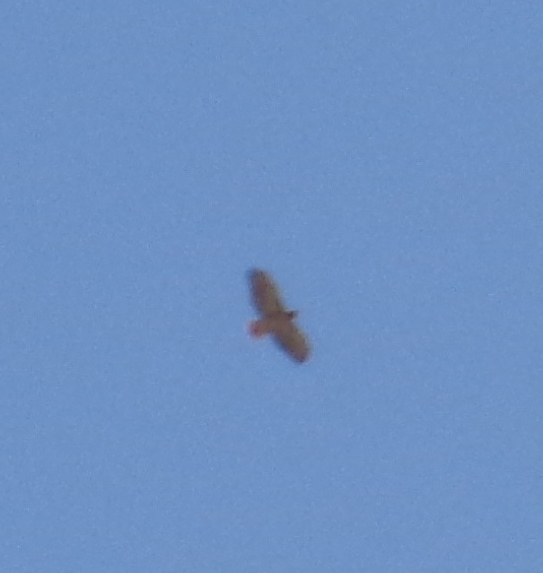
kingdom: Animalia
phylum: Chordata
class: Aves
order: Accipitriformes
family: Accipitridae
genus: Buteo
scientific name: Buteo jamaicensis
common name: Red-tailed hawk
